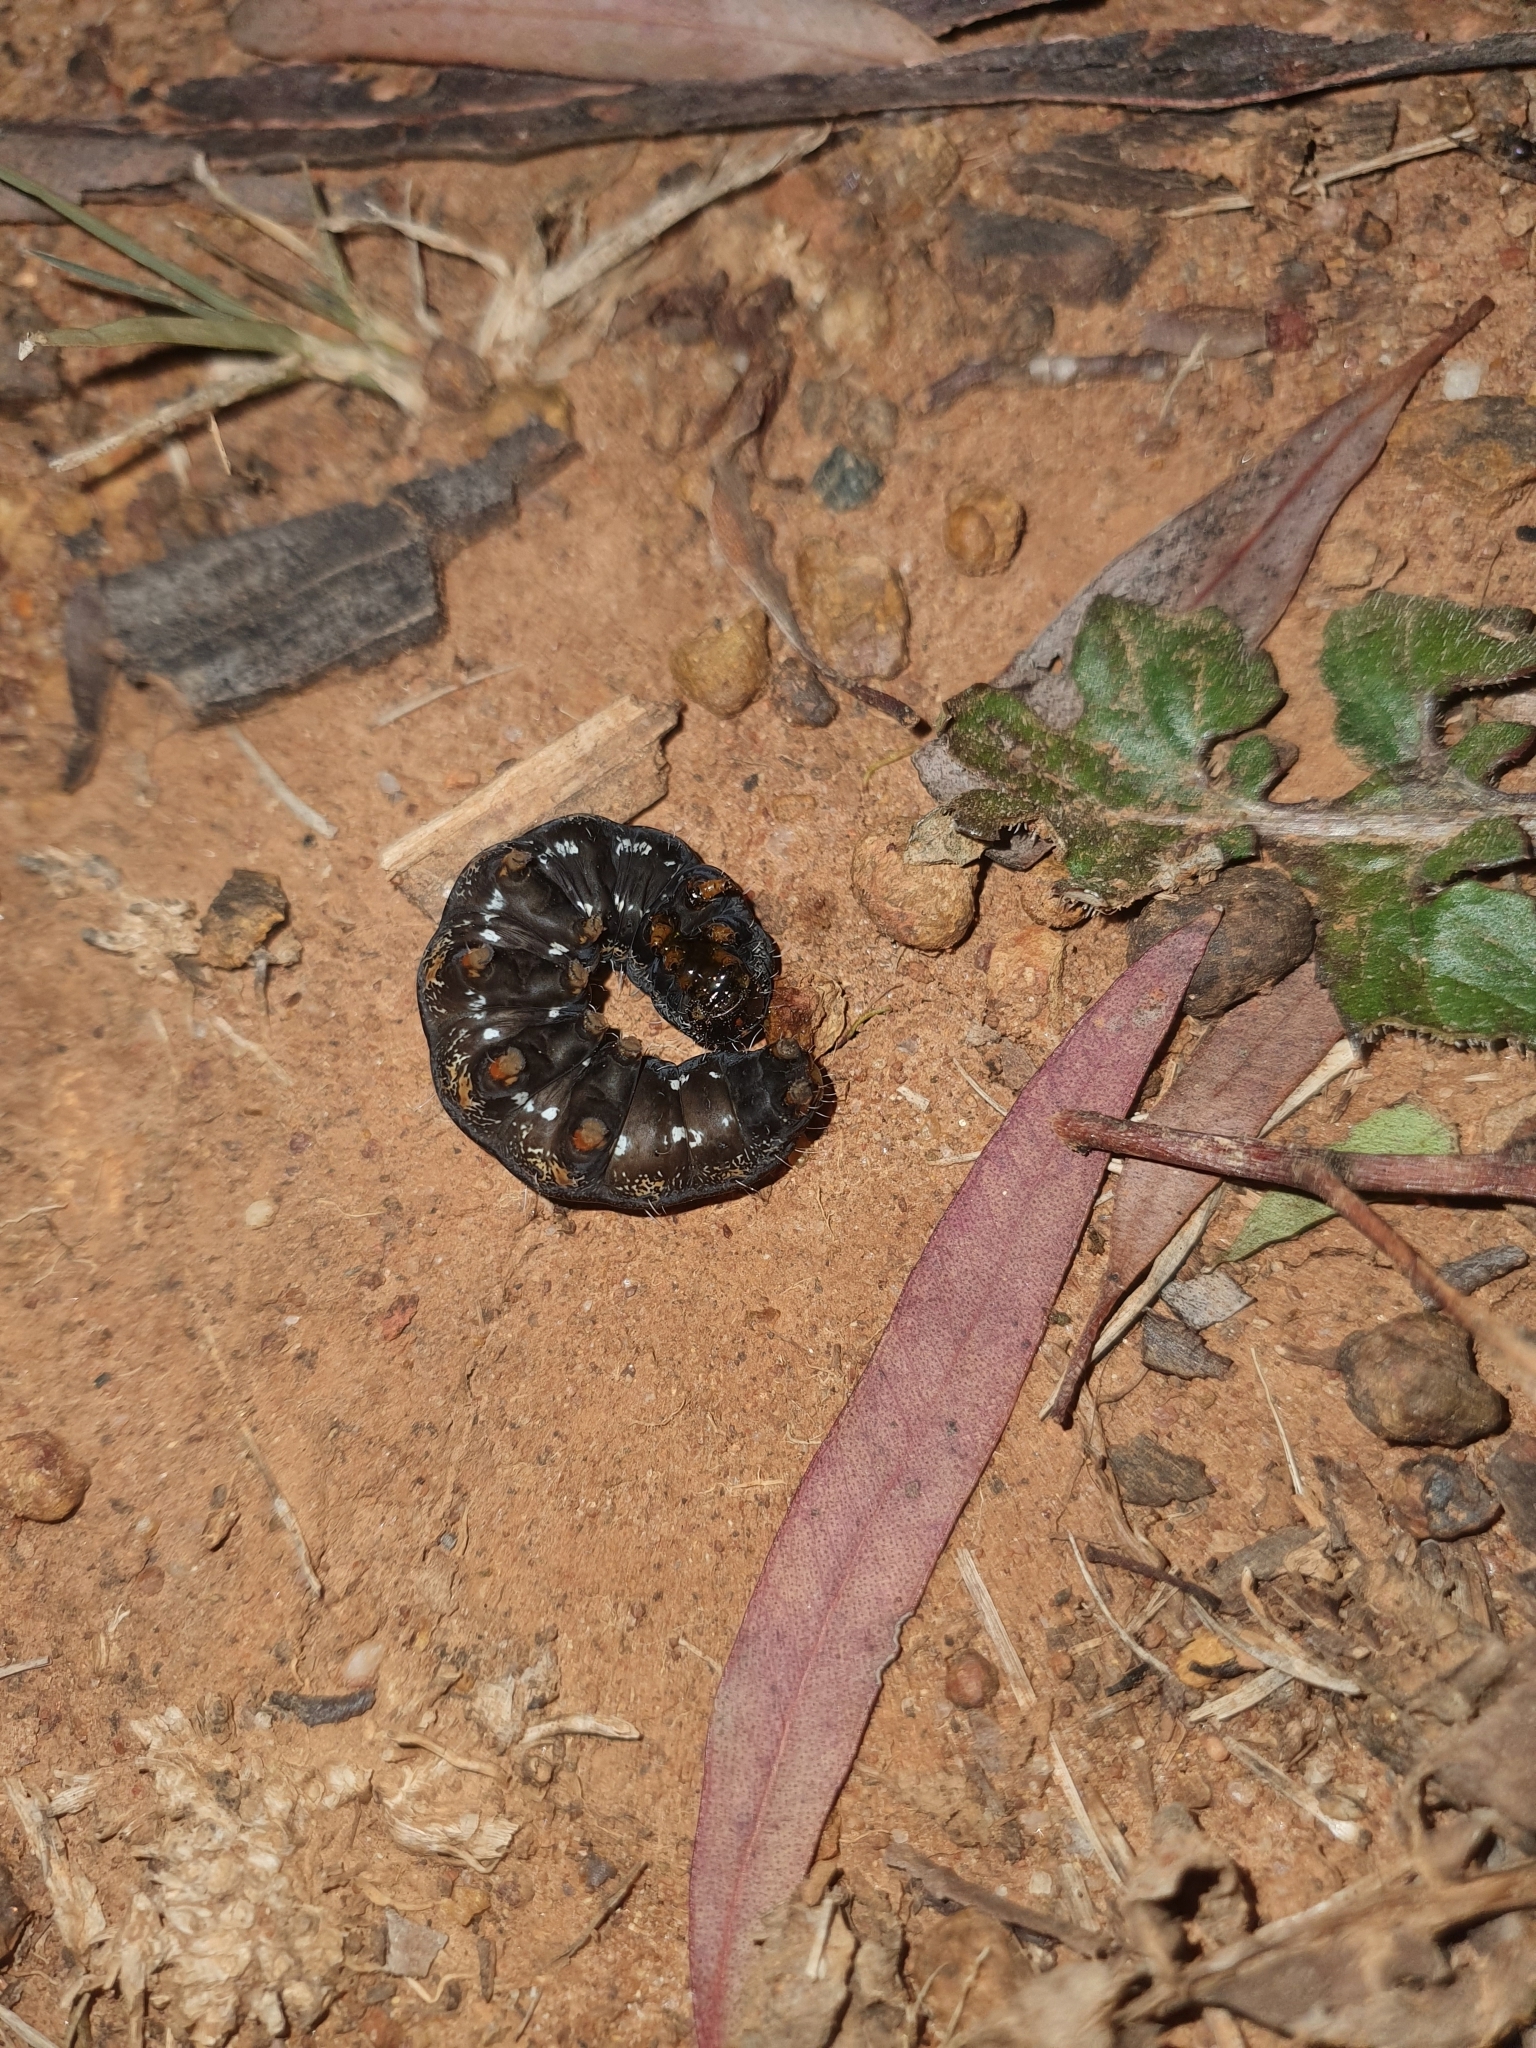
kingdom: Animalia
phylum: Arthropoda
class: Insecta
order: Lepidoptera
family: Noctuidae
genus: Apina
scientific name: Apina callisto
